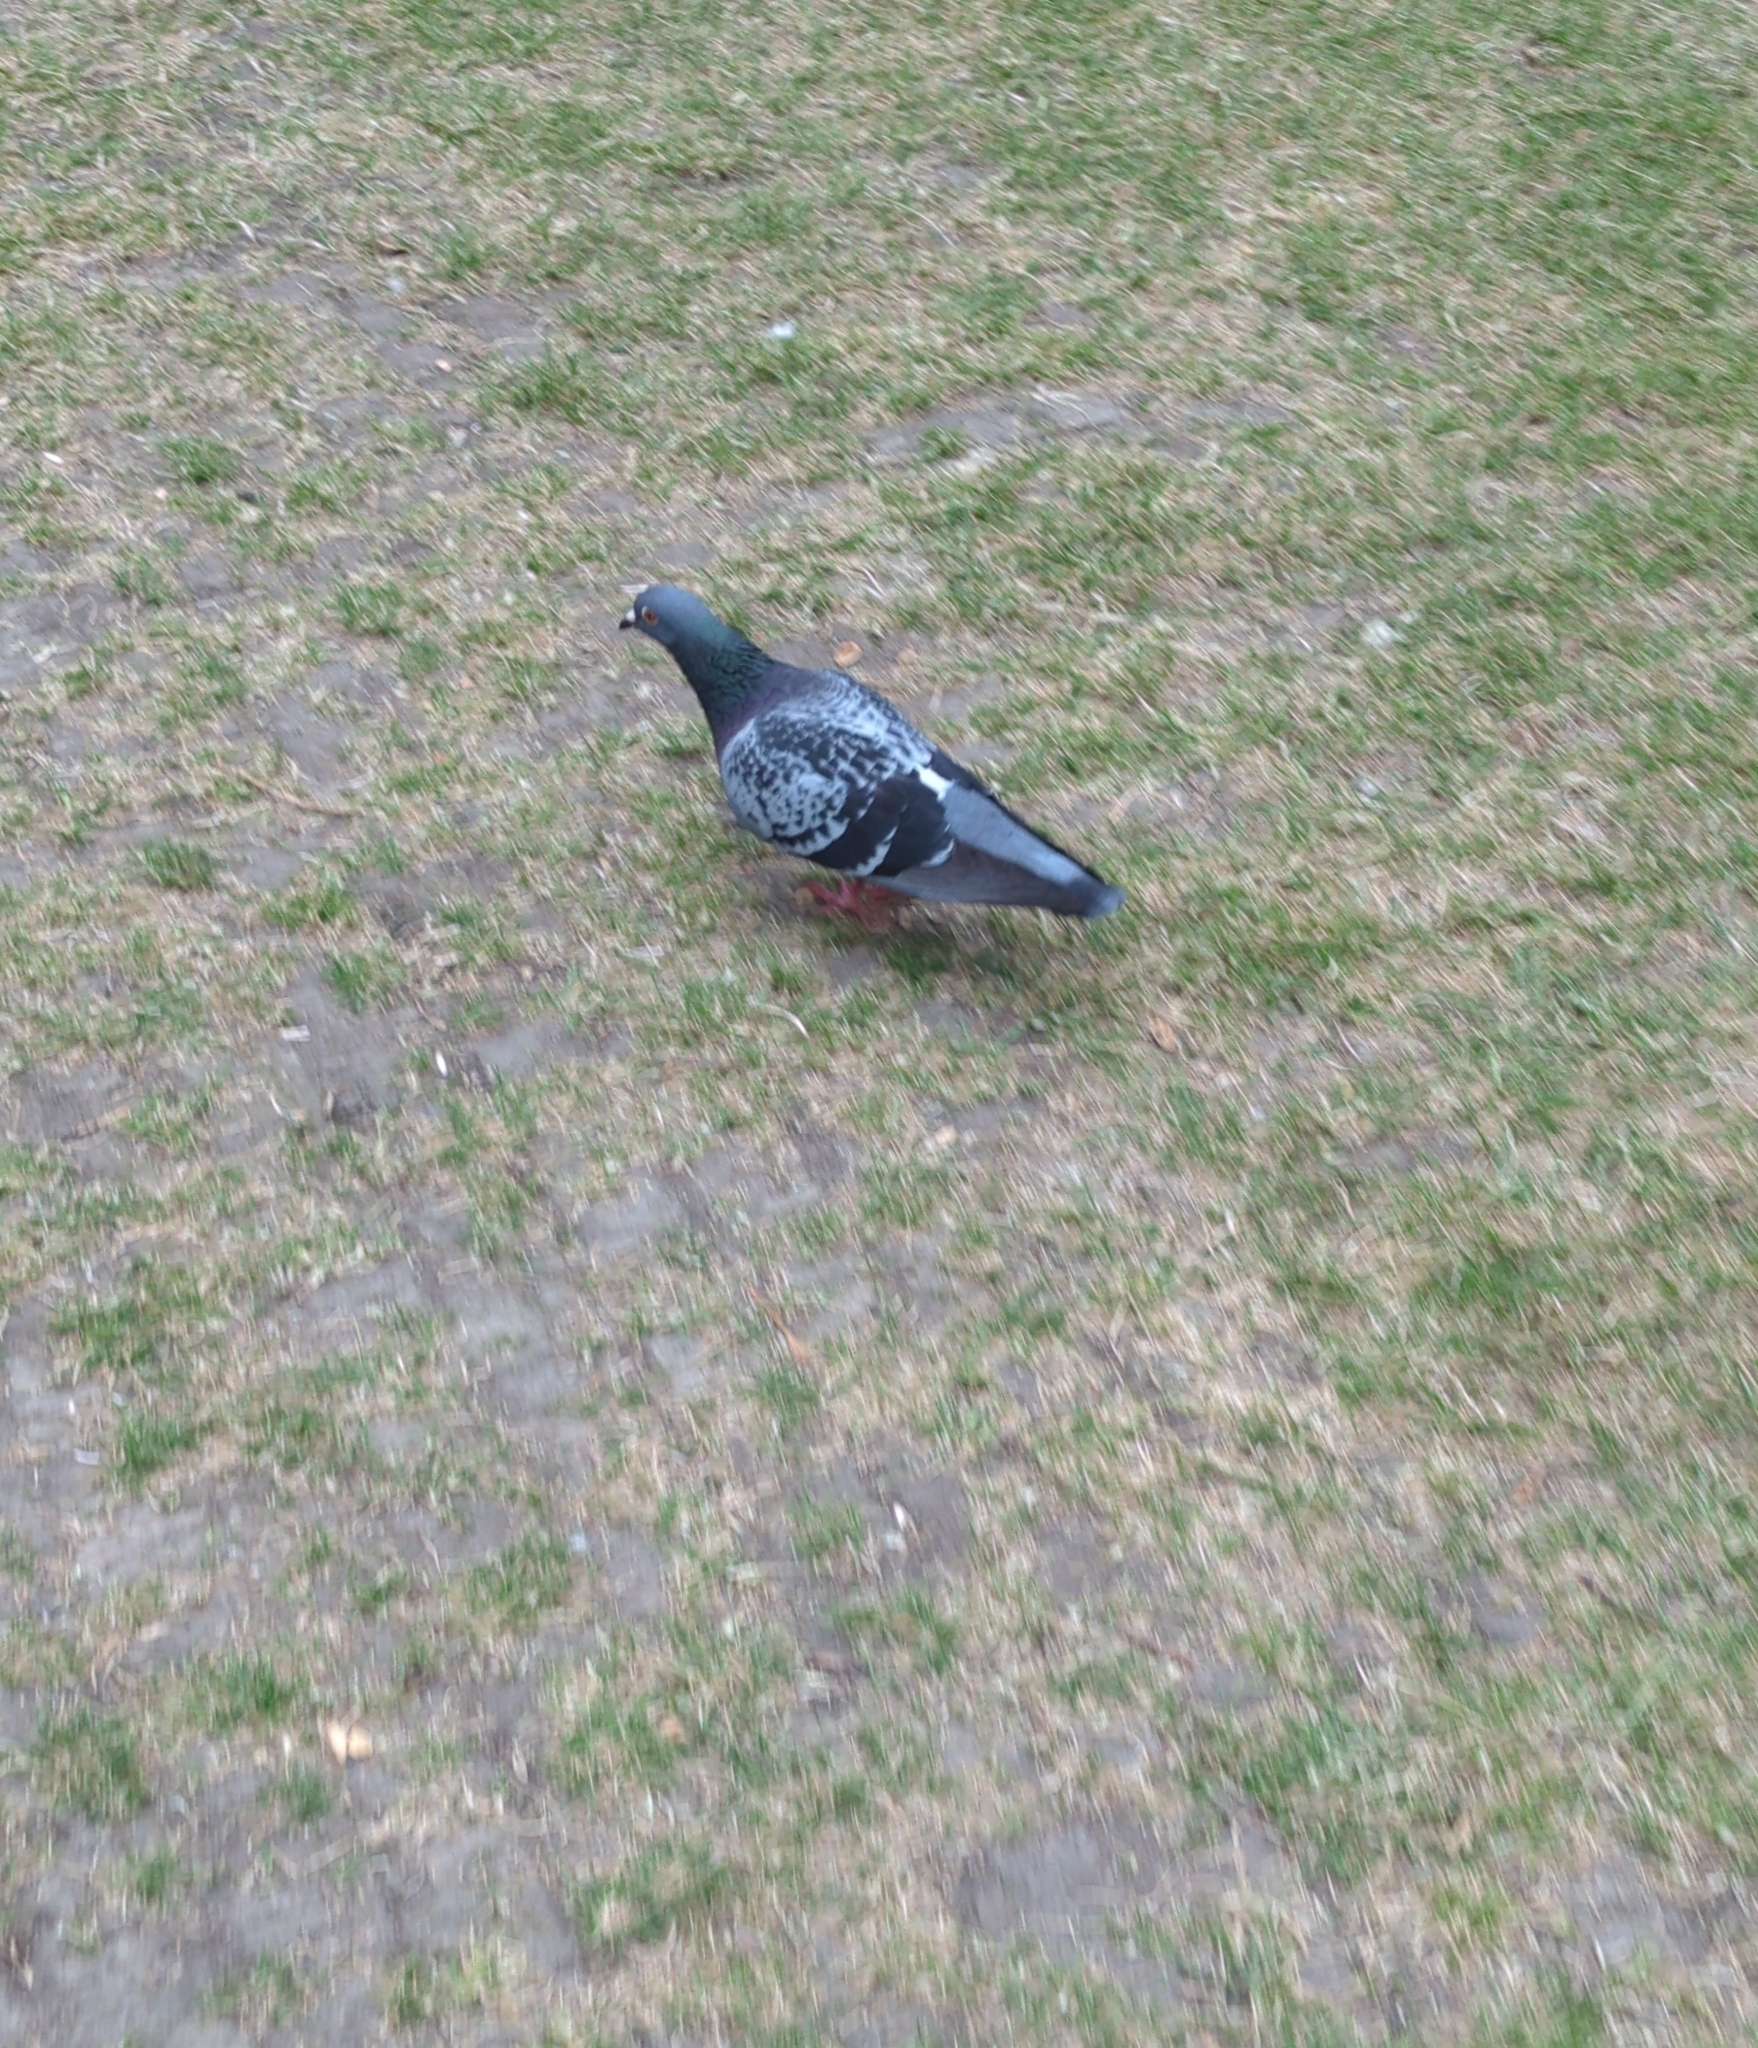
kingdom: Animalia
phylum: Chordata
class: Aves
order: Columbiformes
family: Columbidae
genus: Columba
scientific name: Columba livia
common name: Rock pigeon
